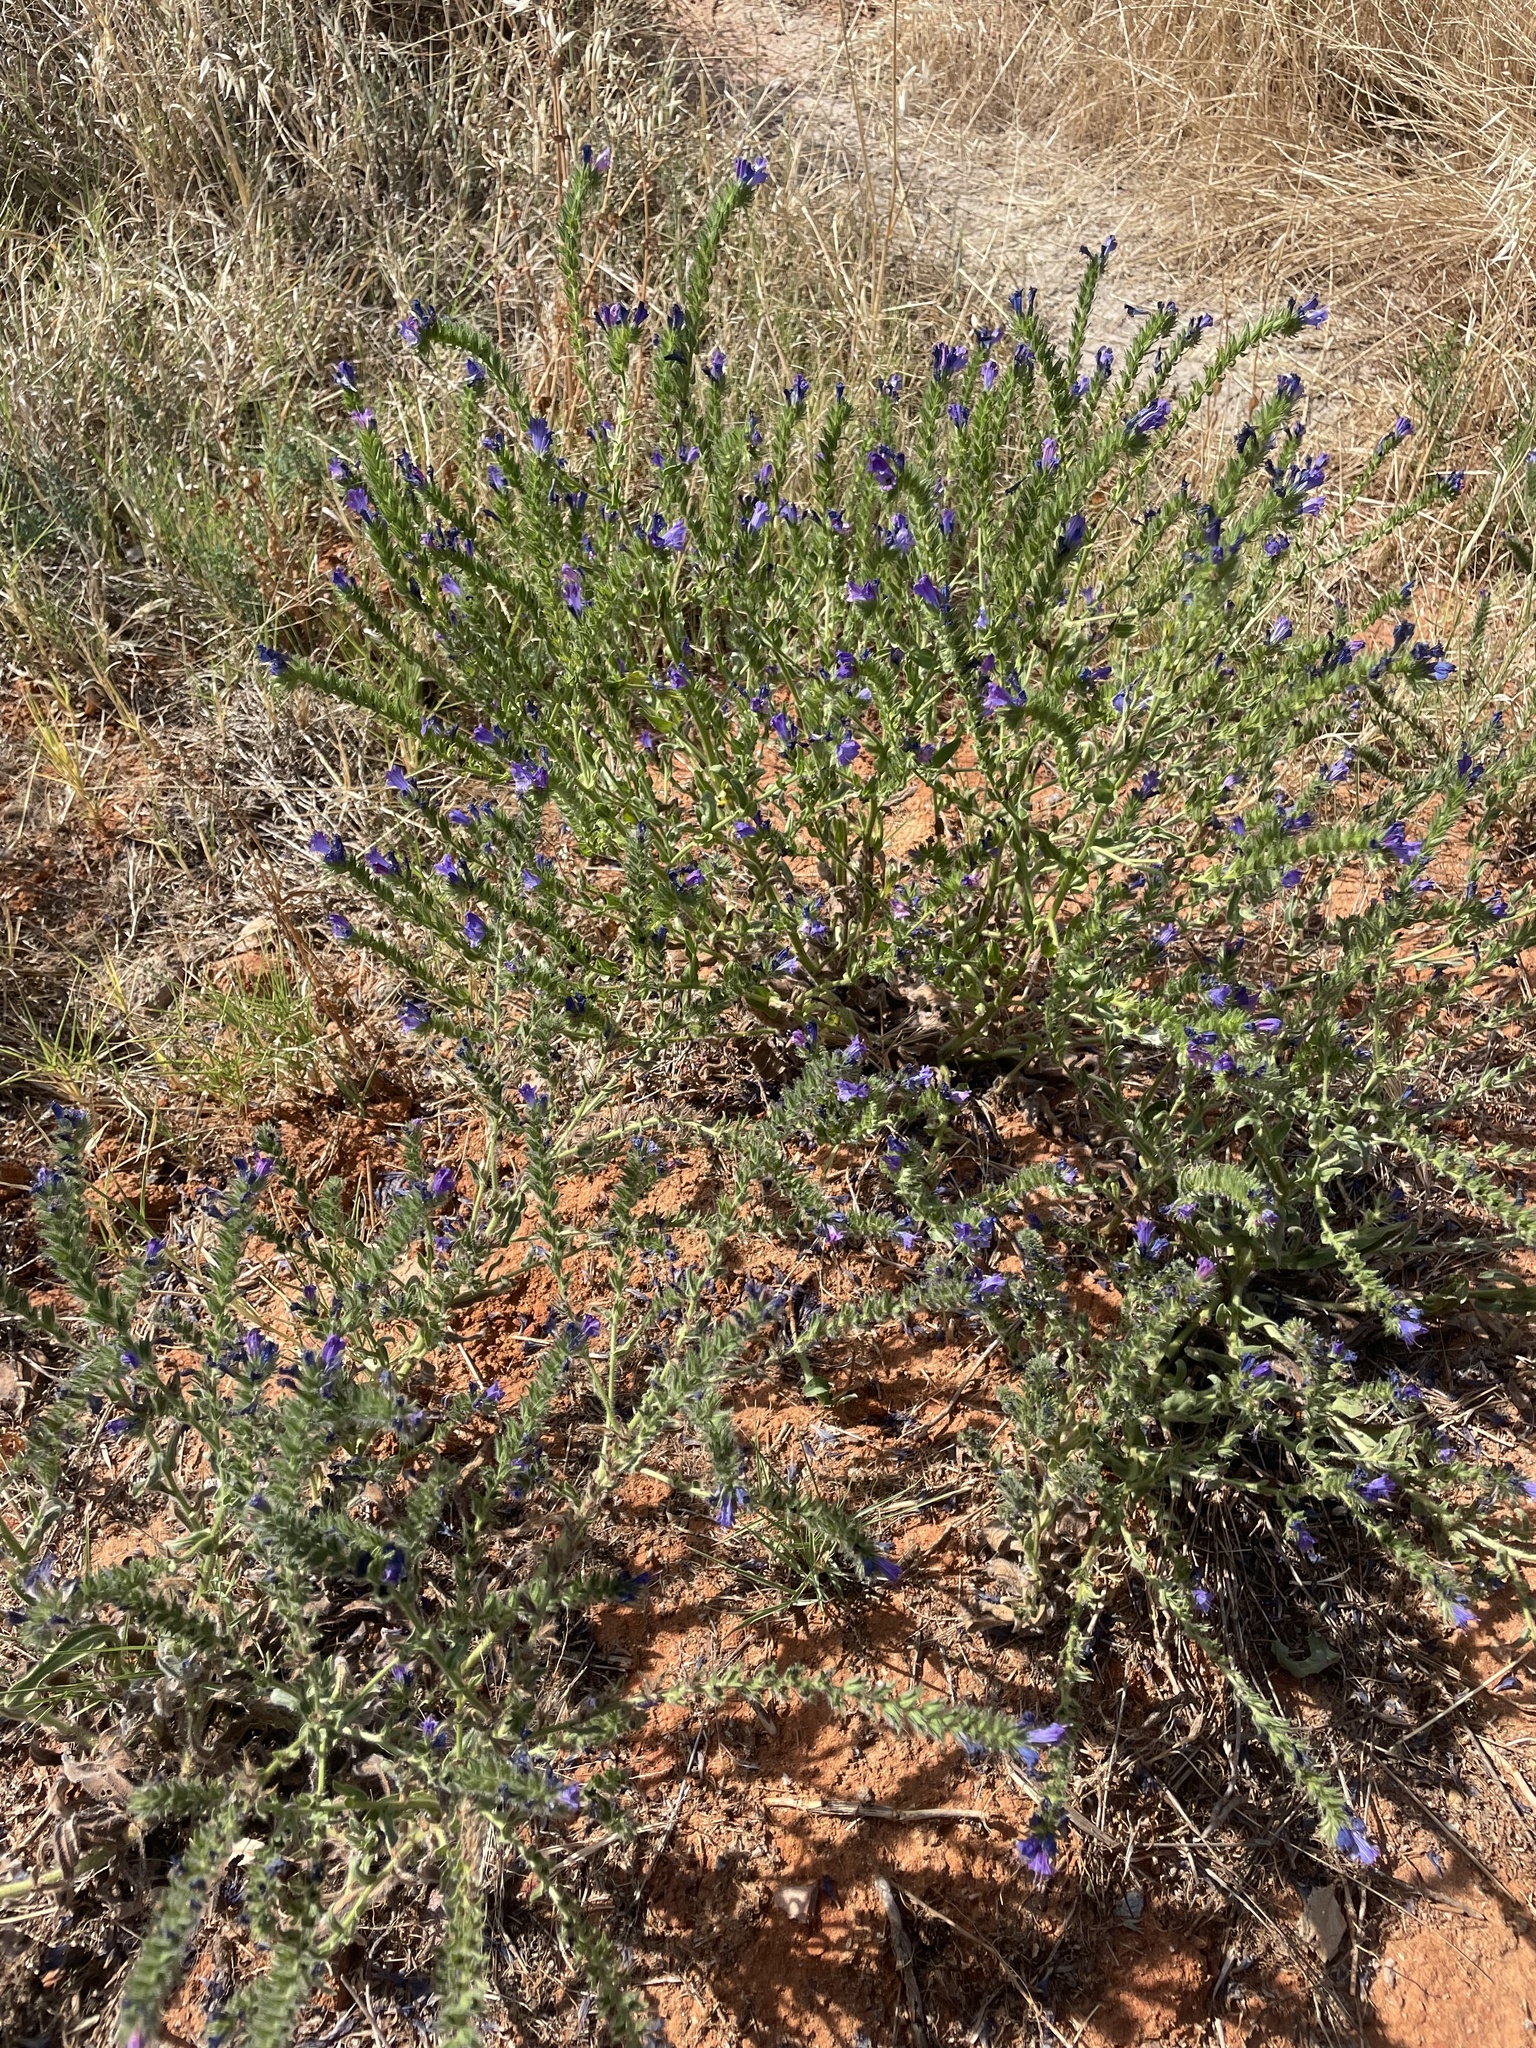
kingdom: Plantae
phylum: Tracheophyta
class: Magnoliopsida
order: Boraginales
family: Boraginaceae
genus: Echium
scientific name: Echium plantagineum
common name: Purple viper's-bugloss
